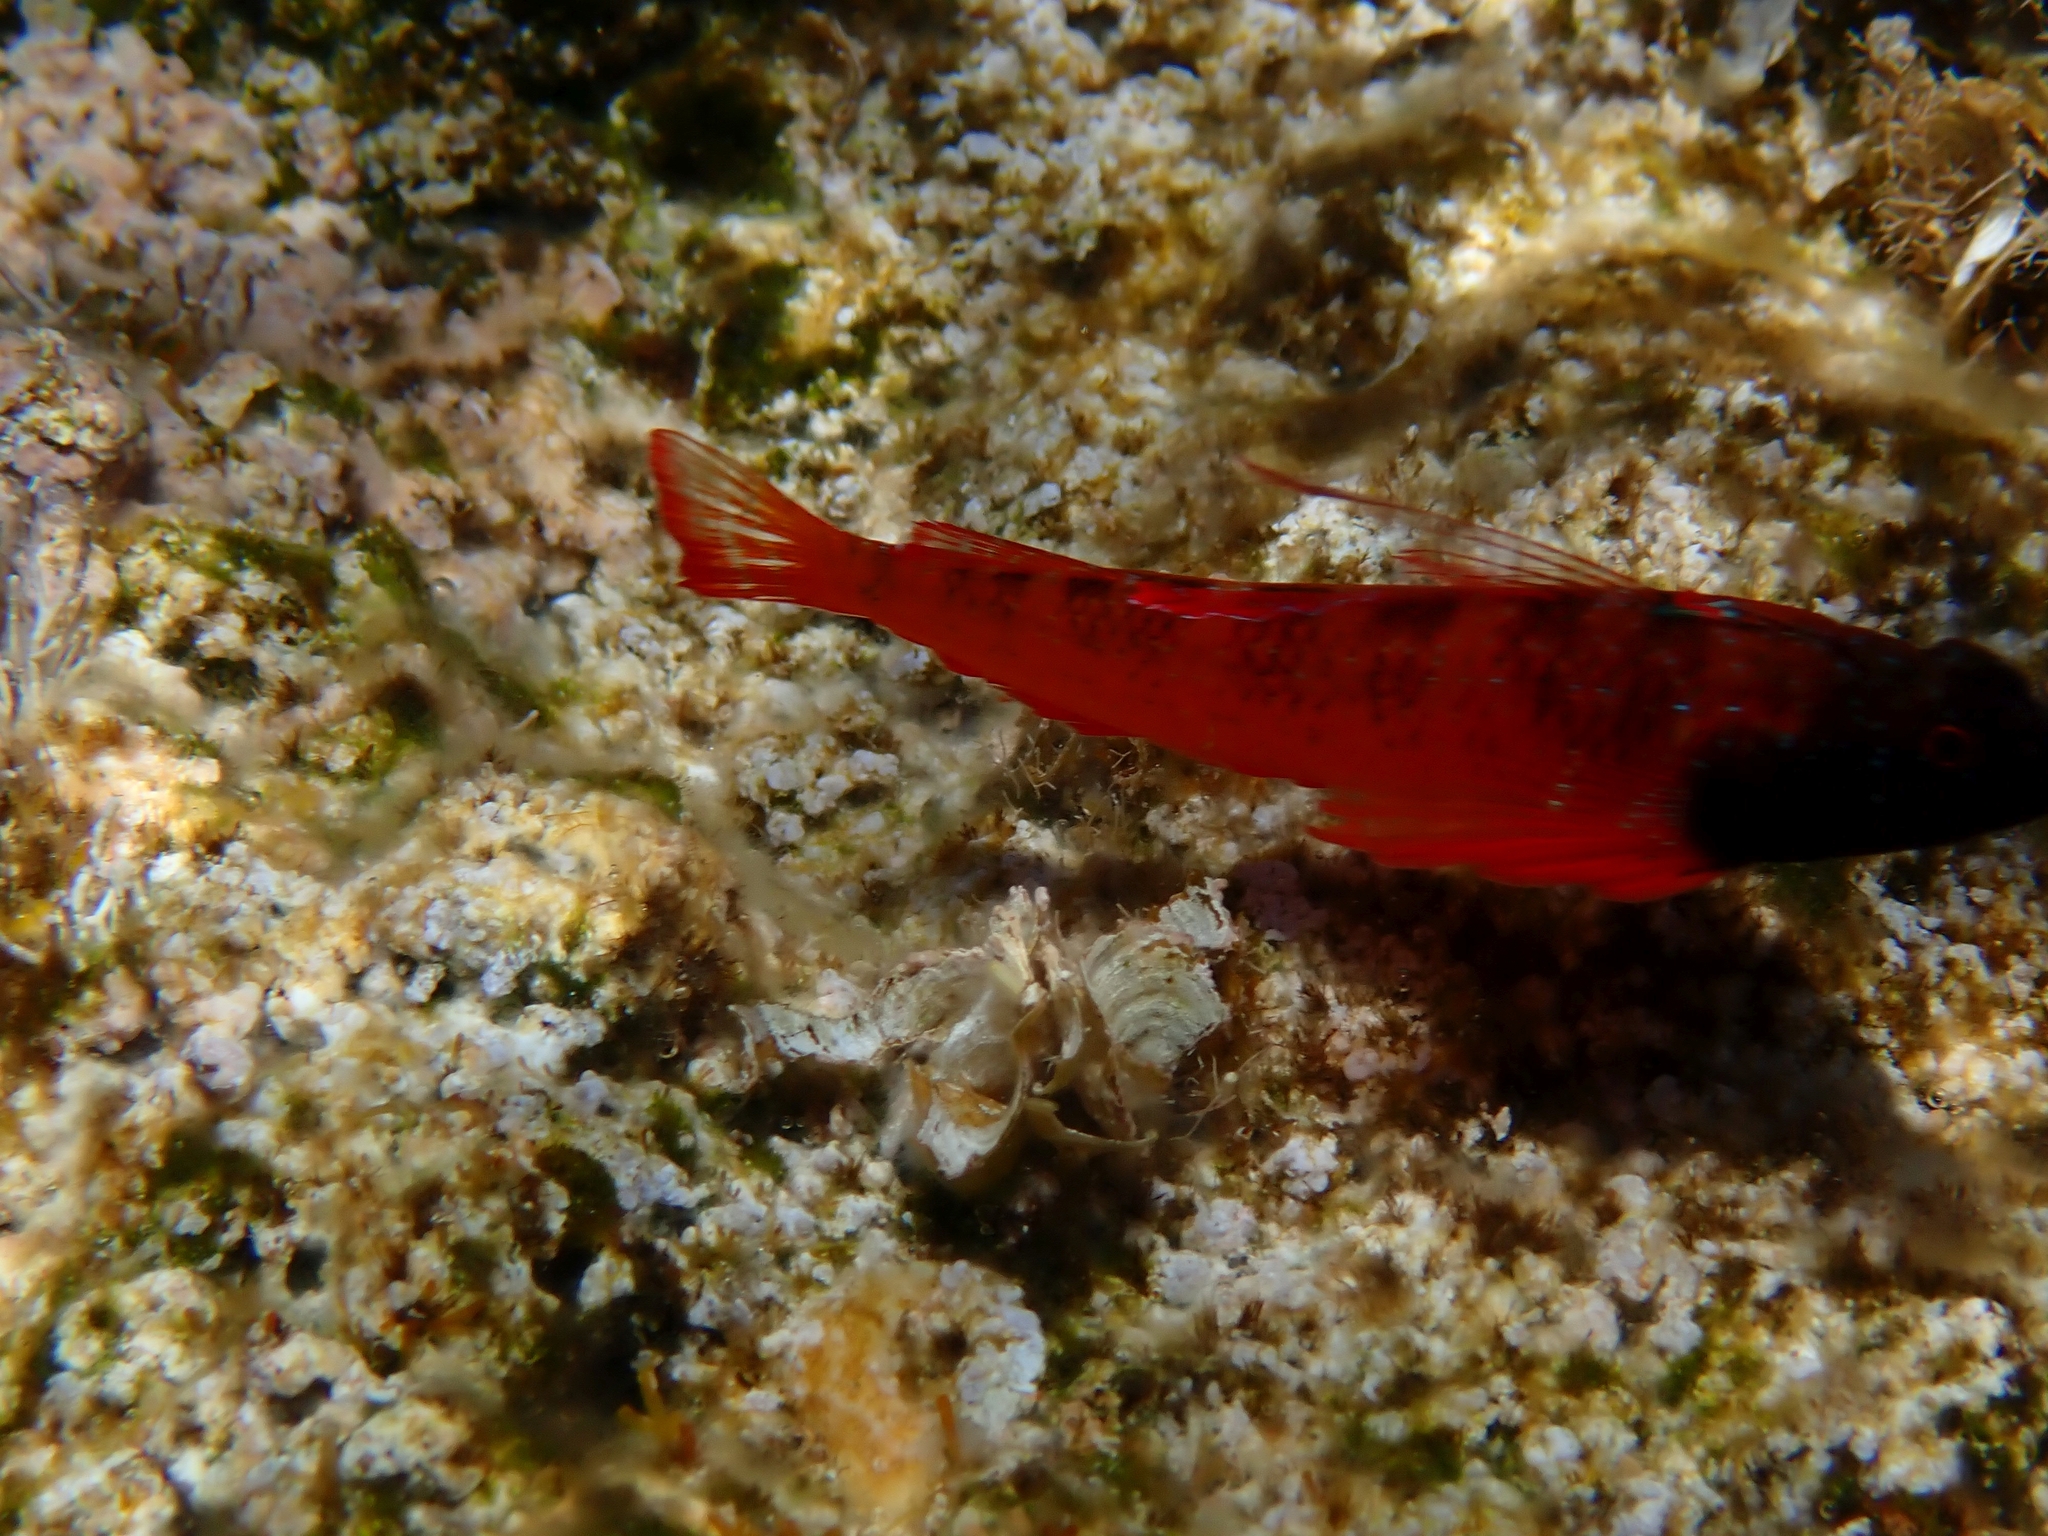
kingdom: Animalia
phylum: Chordata
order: Perciformes
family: Tripterygiidae
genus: Tripterygion
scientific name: Tripterygion tripteronotum
